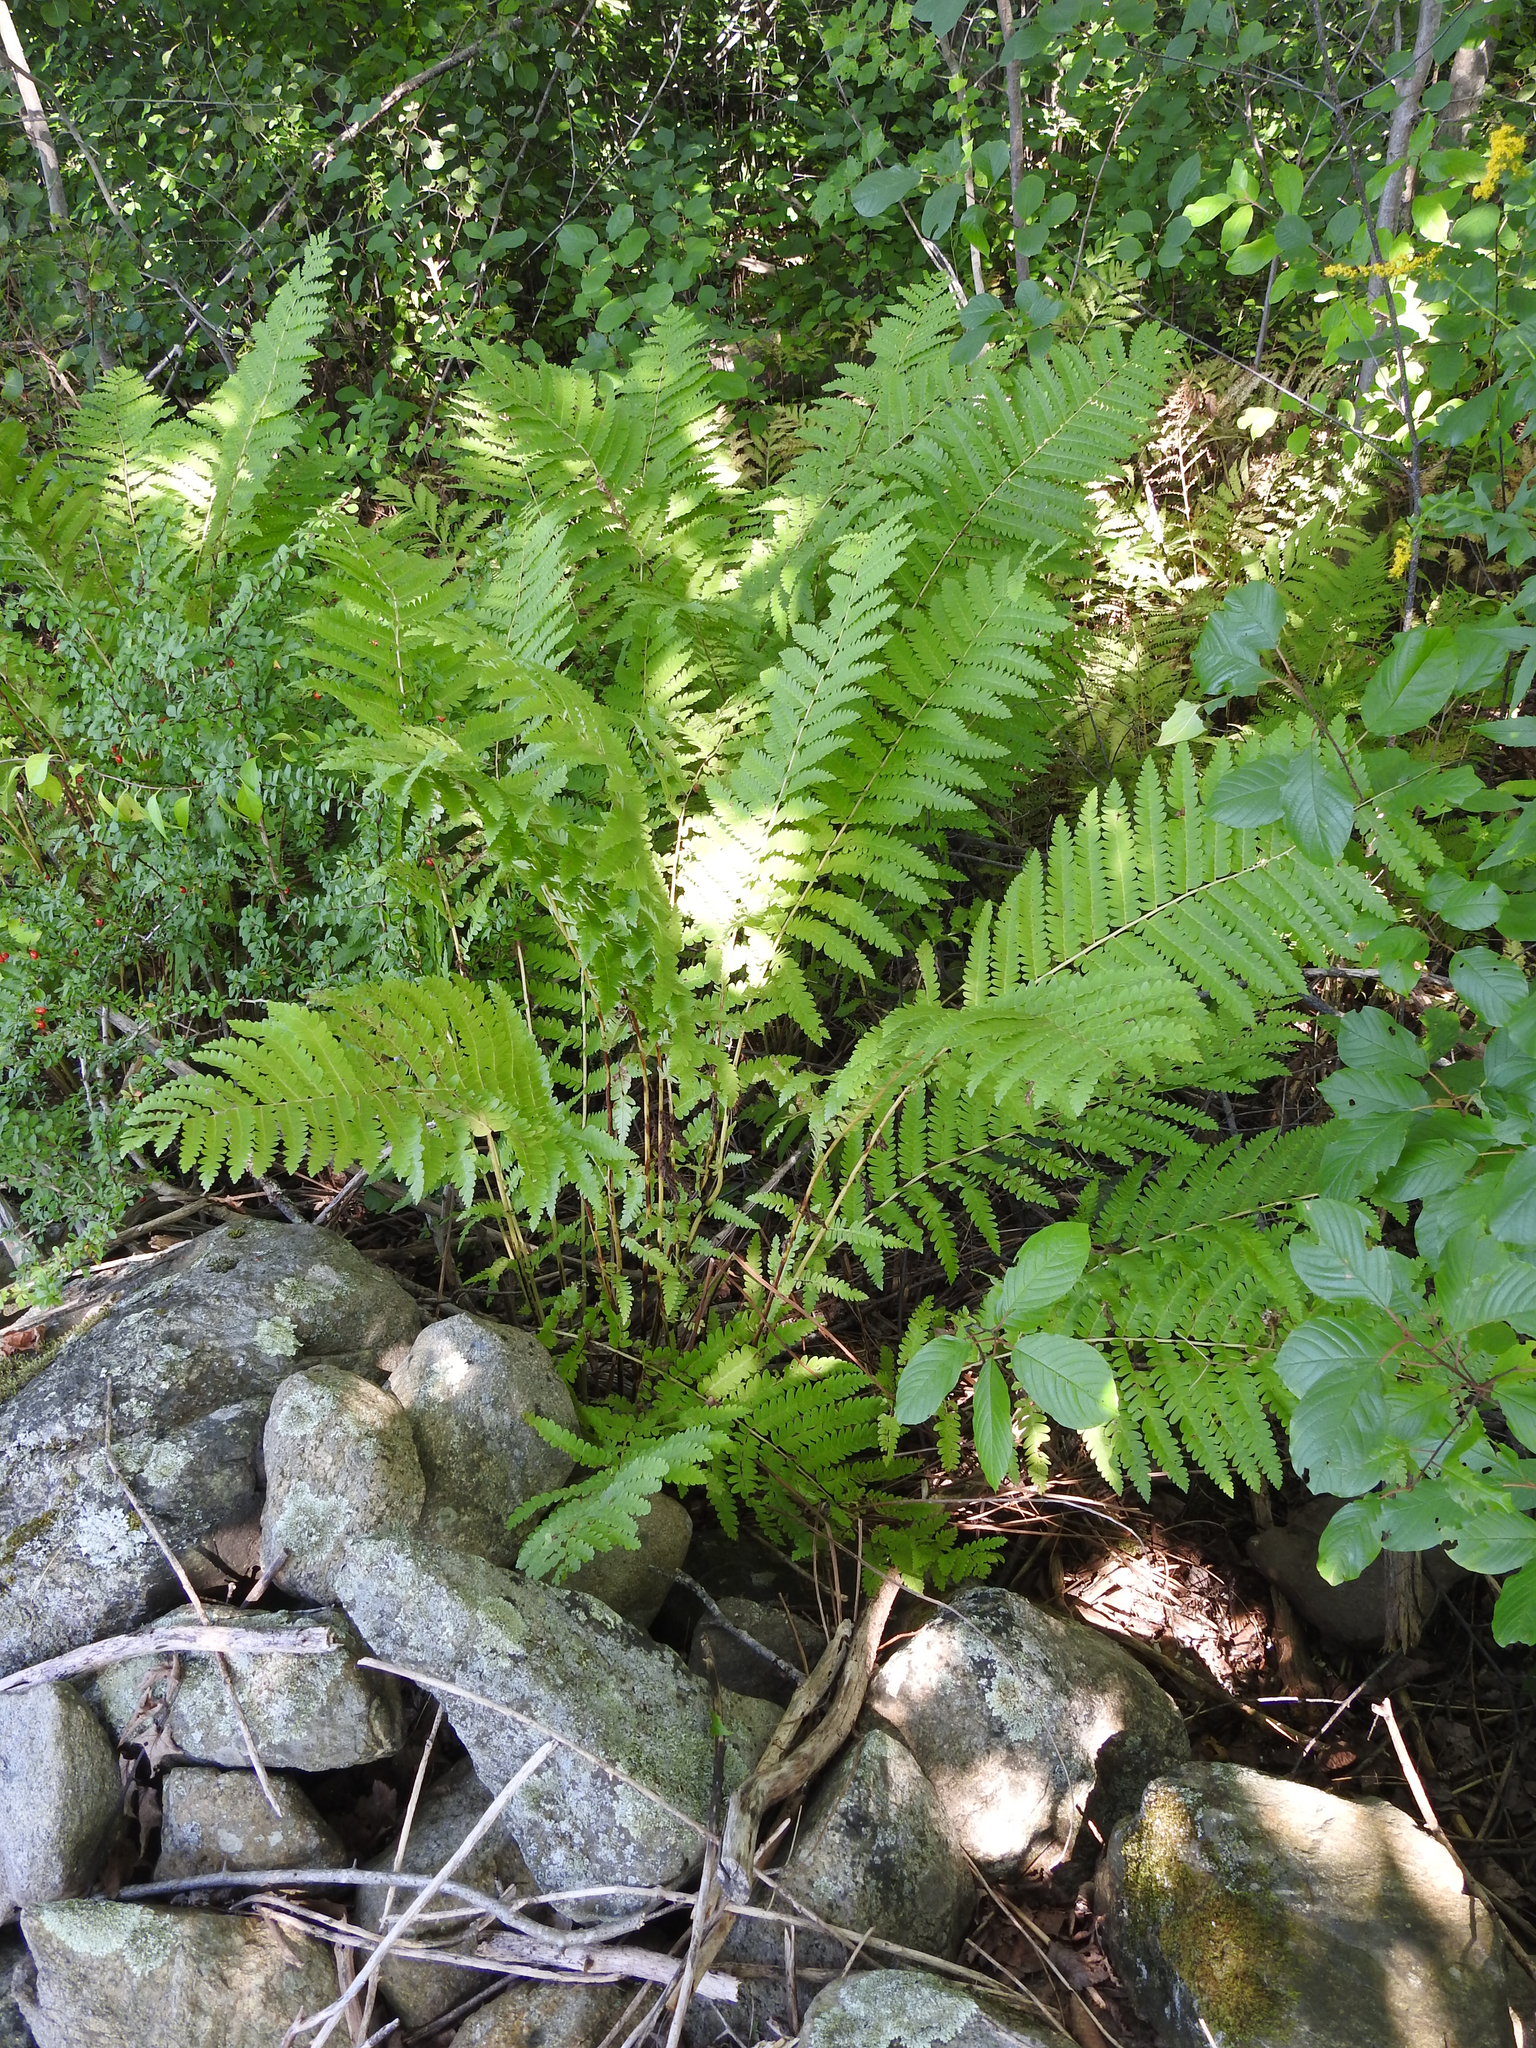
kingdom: Plantae
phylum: Tracheophyta
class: Polypodiopsida
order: Osmundales
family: Osmundaceae
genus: Claytosmunda
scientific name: Claytosmunda claytoniana
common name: Clayton's fern
